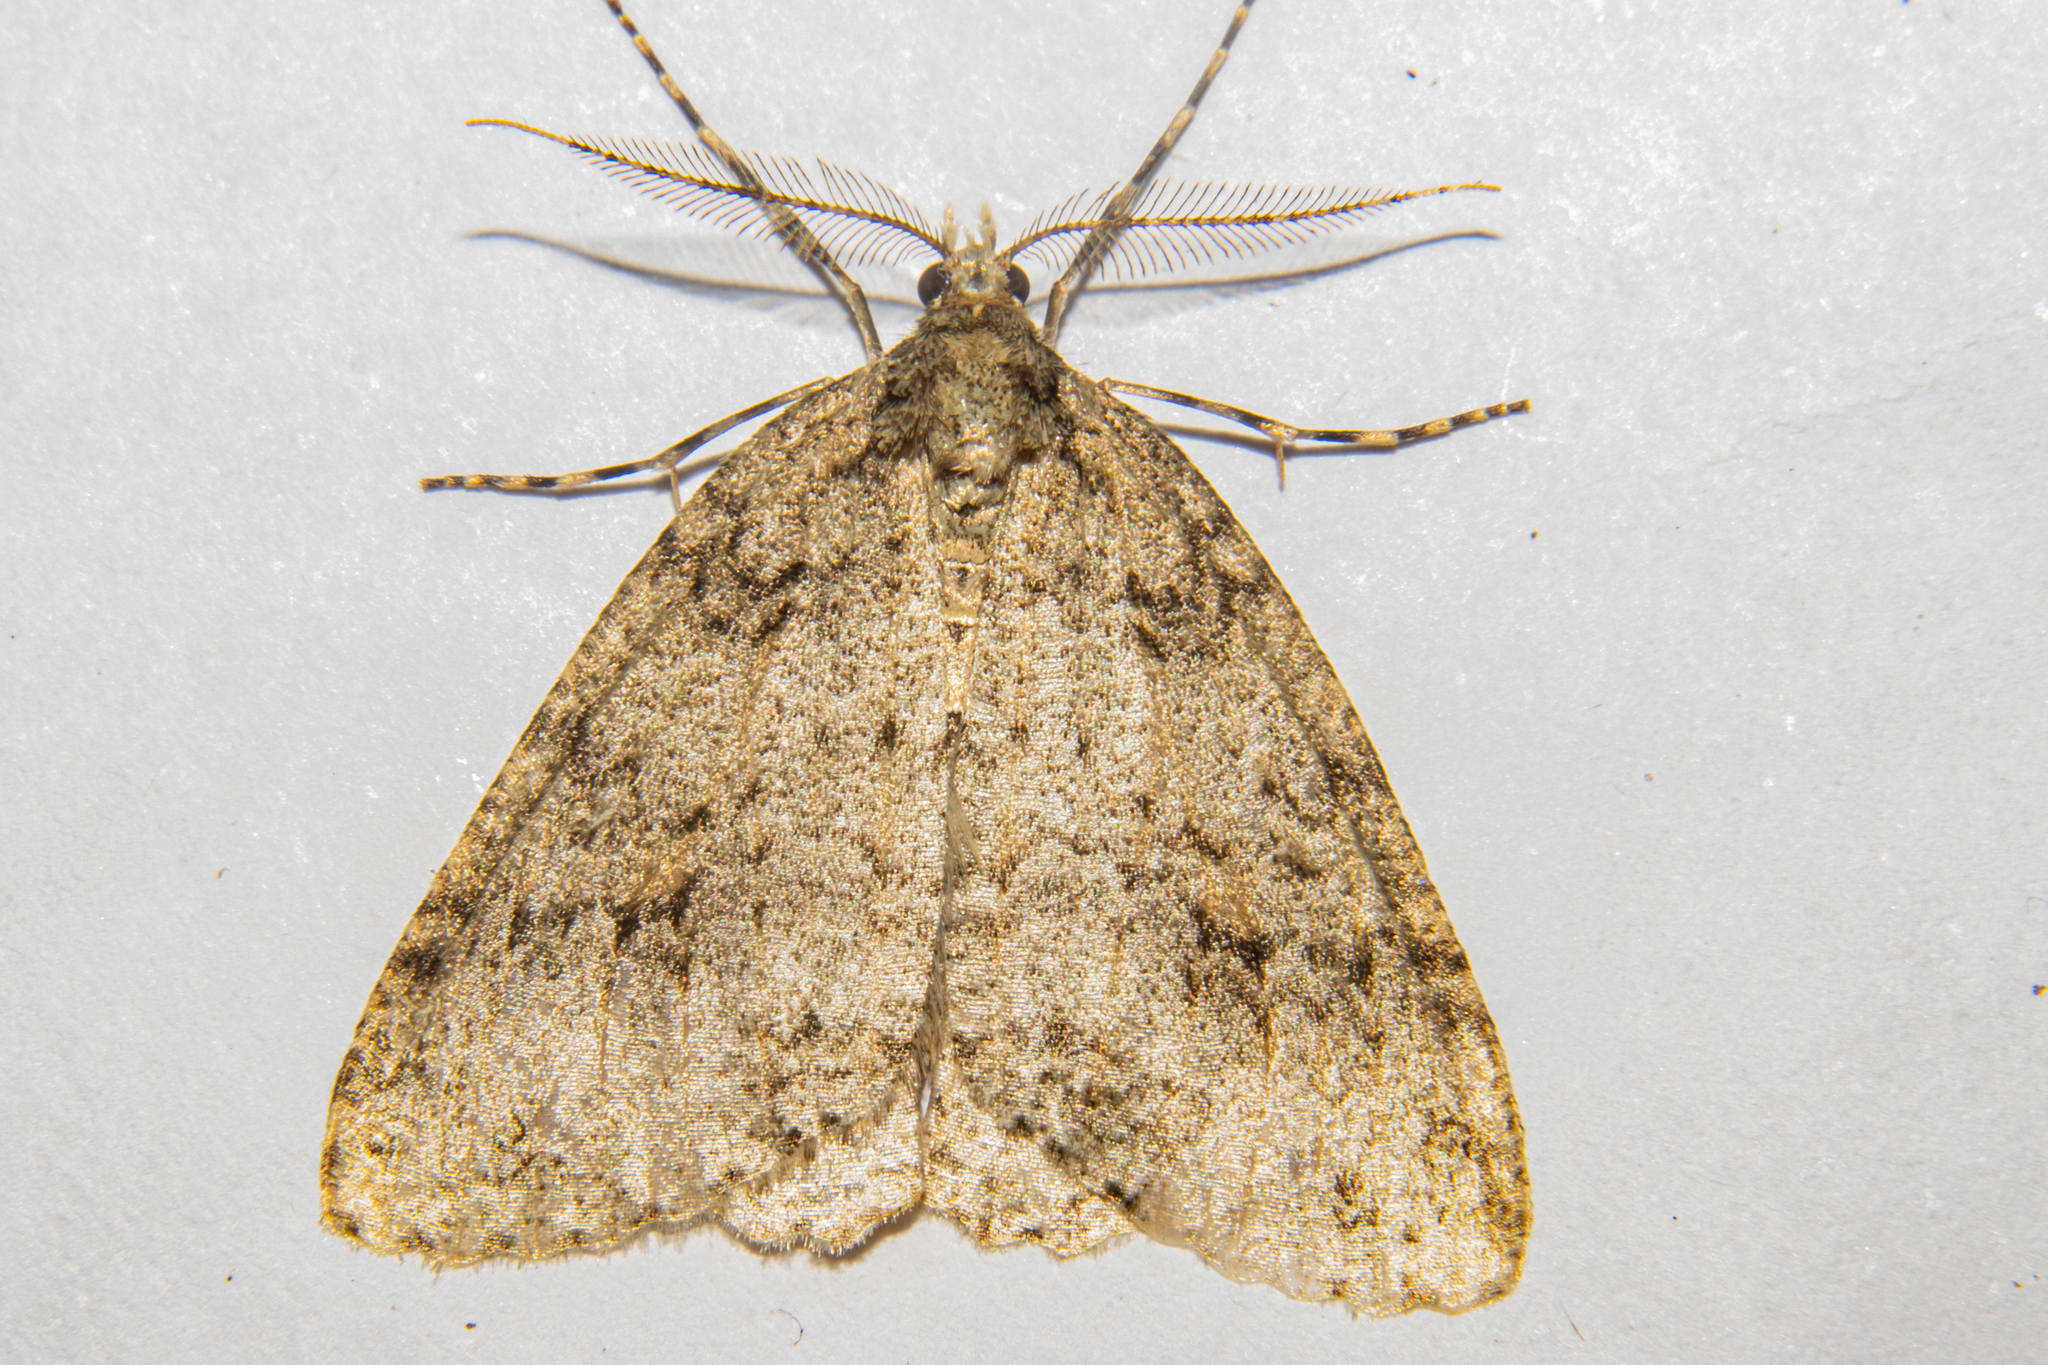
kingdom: Animalia
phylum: Arthropoda
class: Insecta
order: Lepidoptera
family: Geometridae
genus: Pseudocoremia
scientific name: Pseudocoremia rudisata
